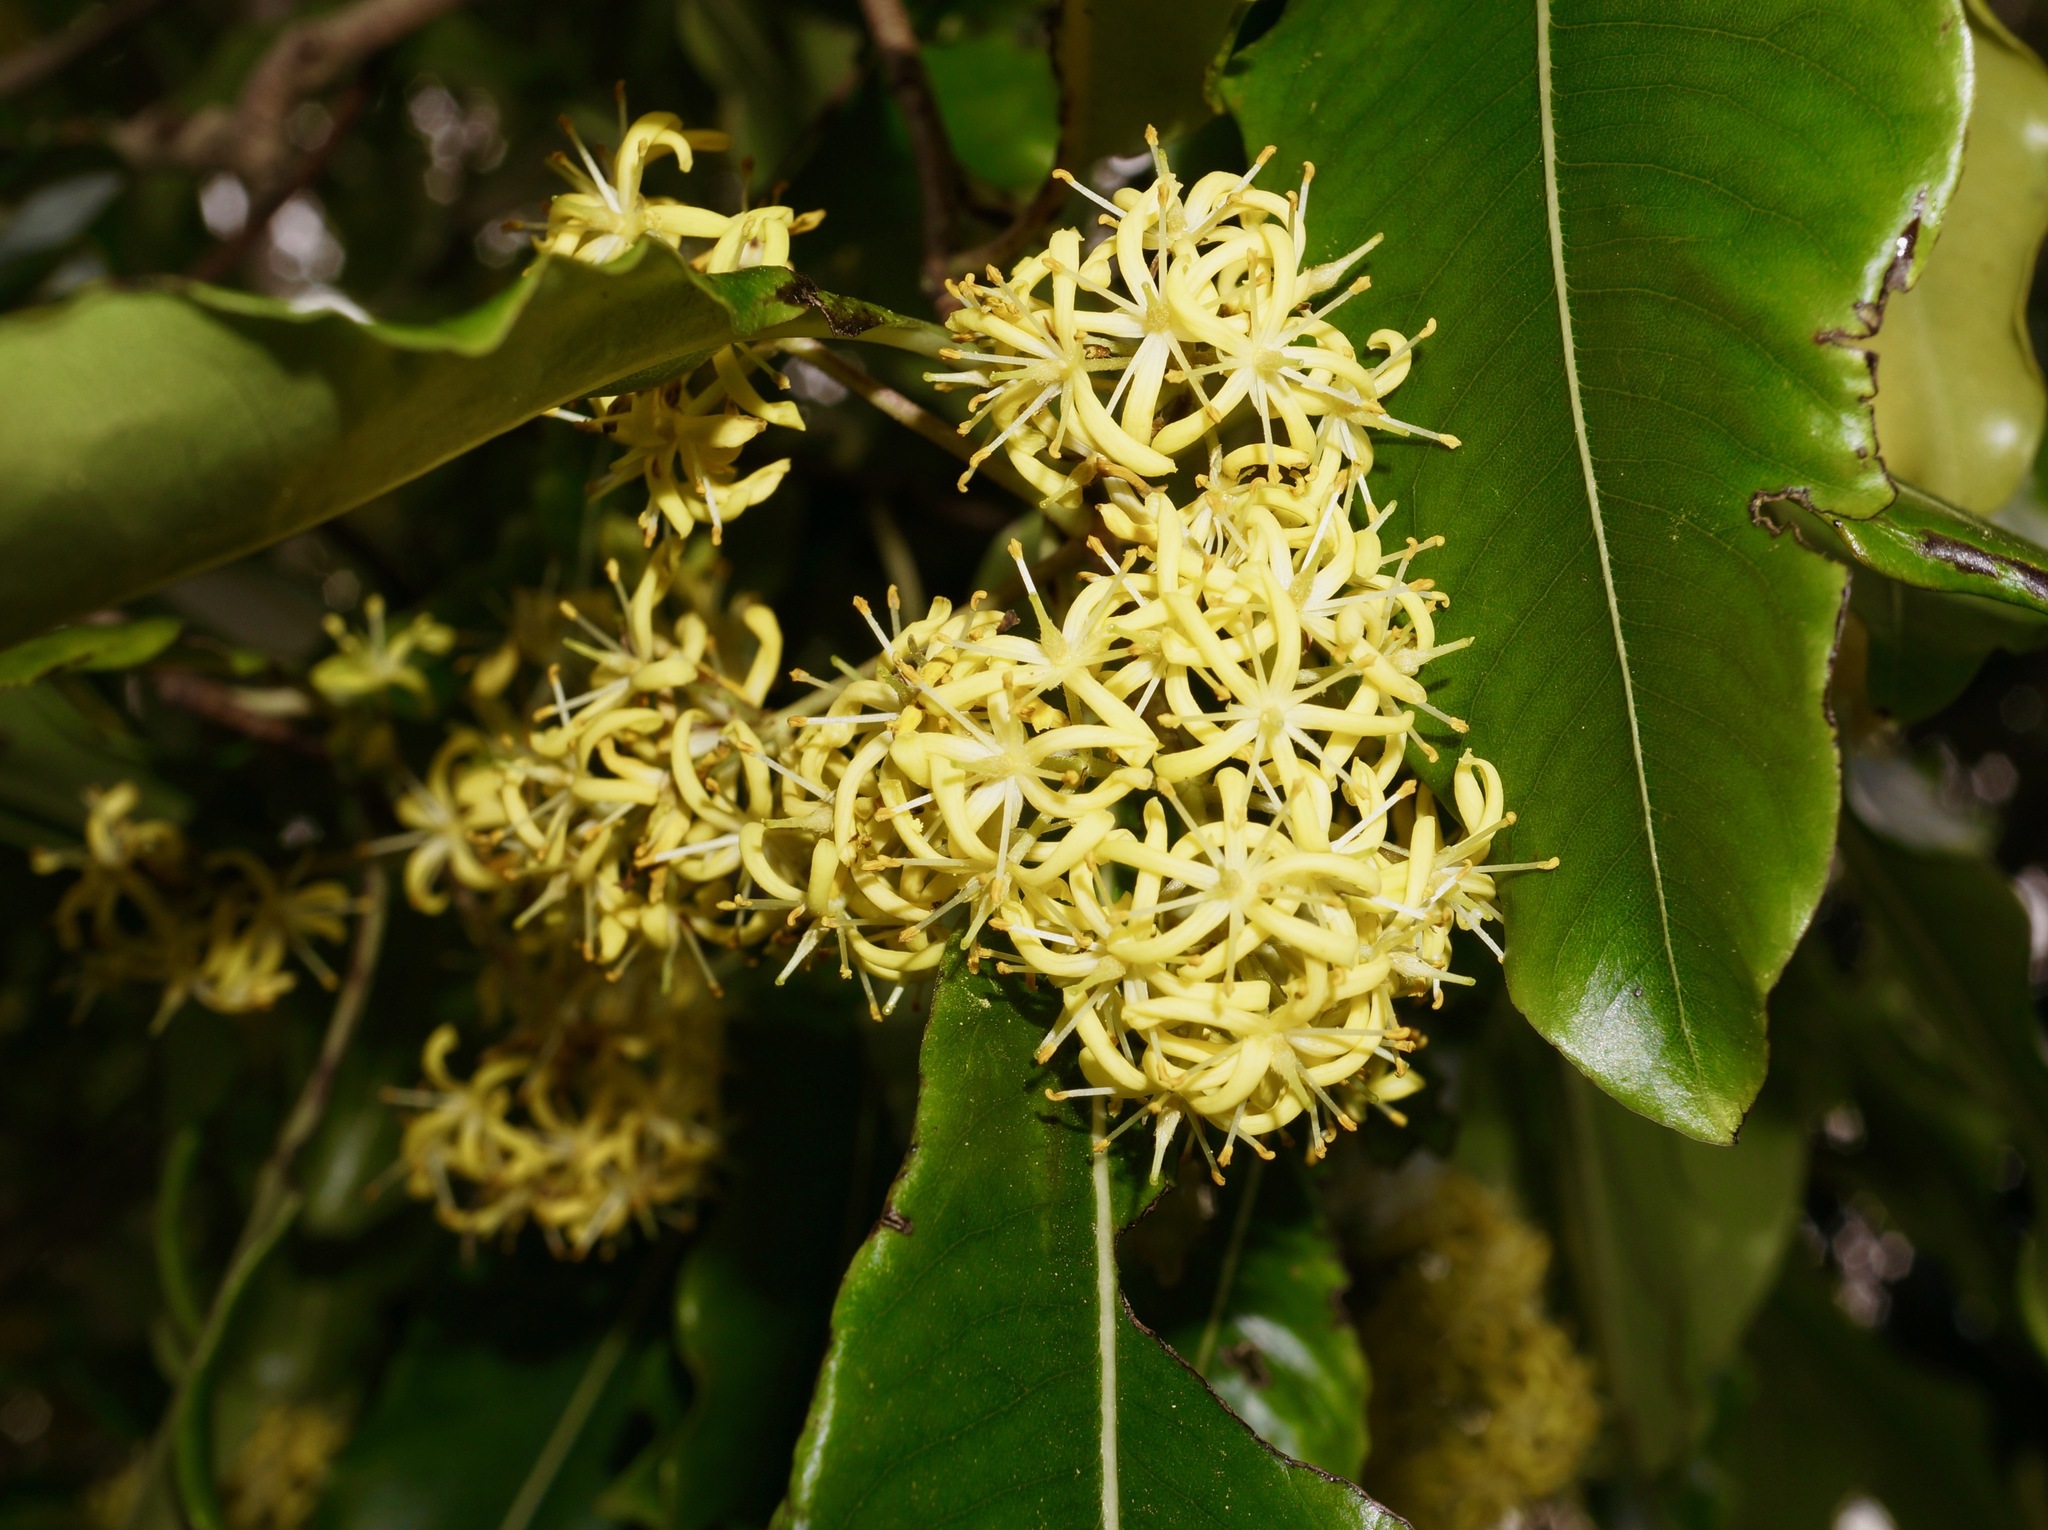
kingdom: Plantae
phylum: Tracheophyta
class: Magnoliopsida
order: Apiales
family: Pittosporaceae
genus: Pittosporum
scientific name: Pittosporum eugenioides
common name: Lemonwood
